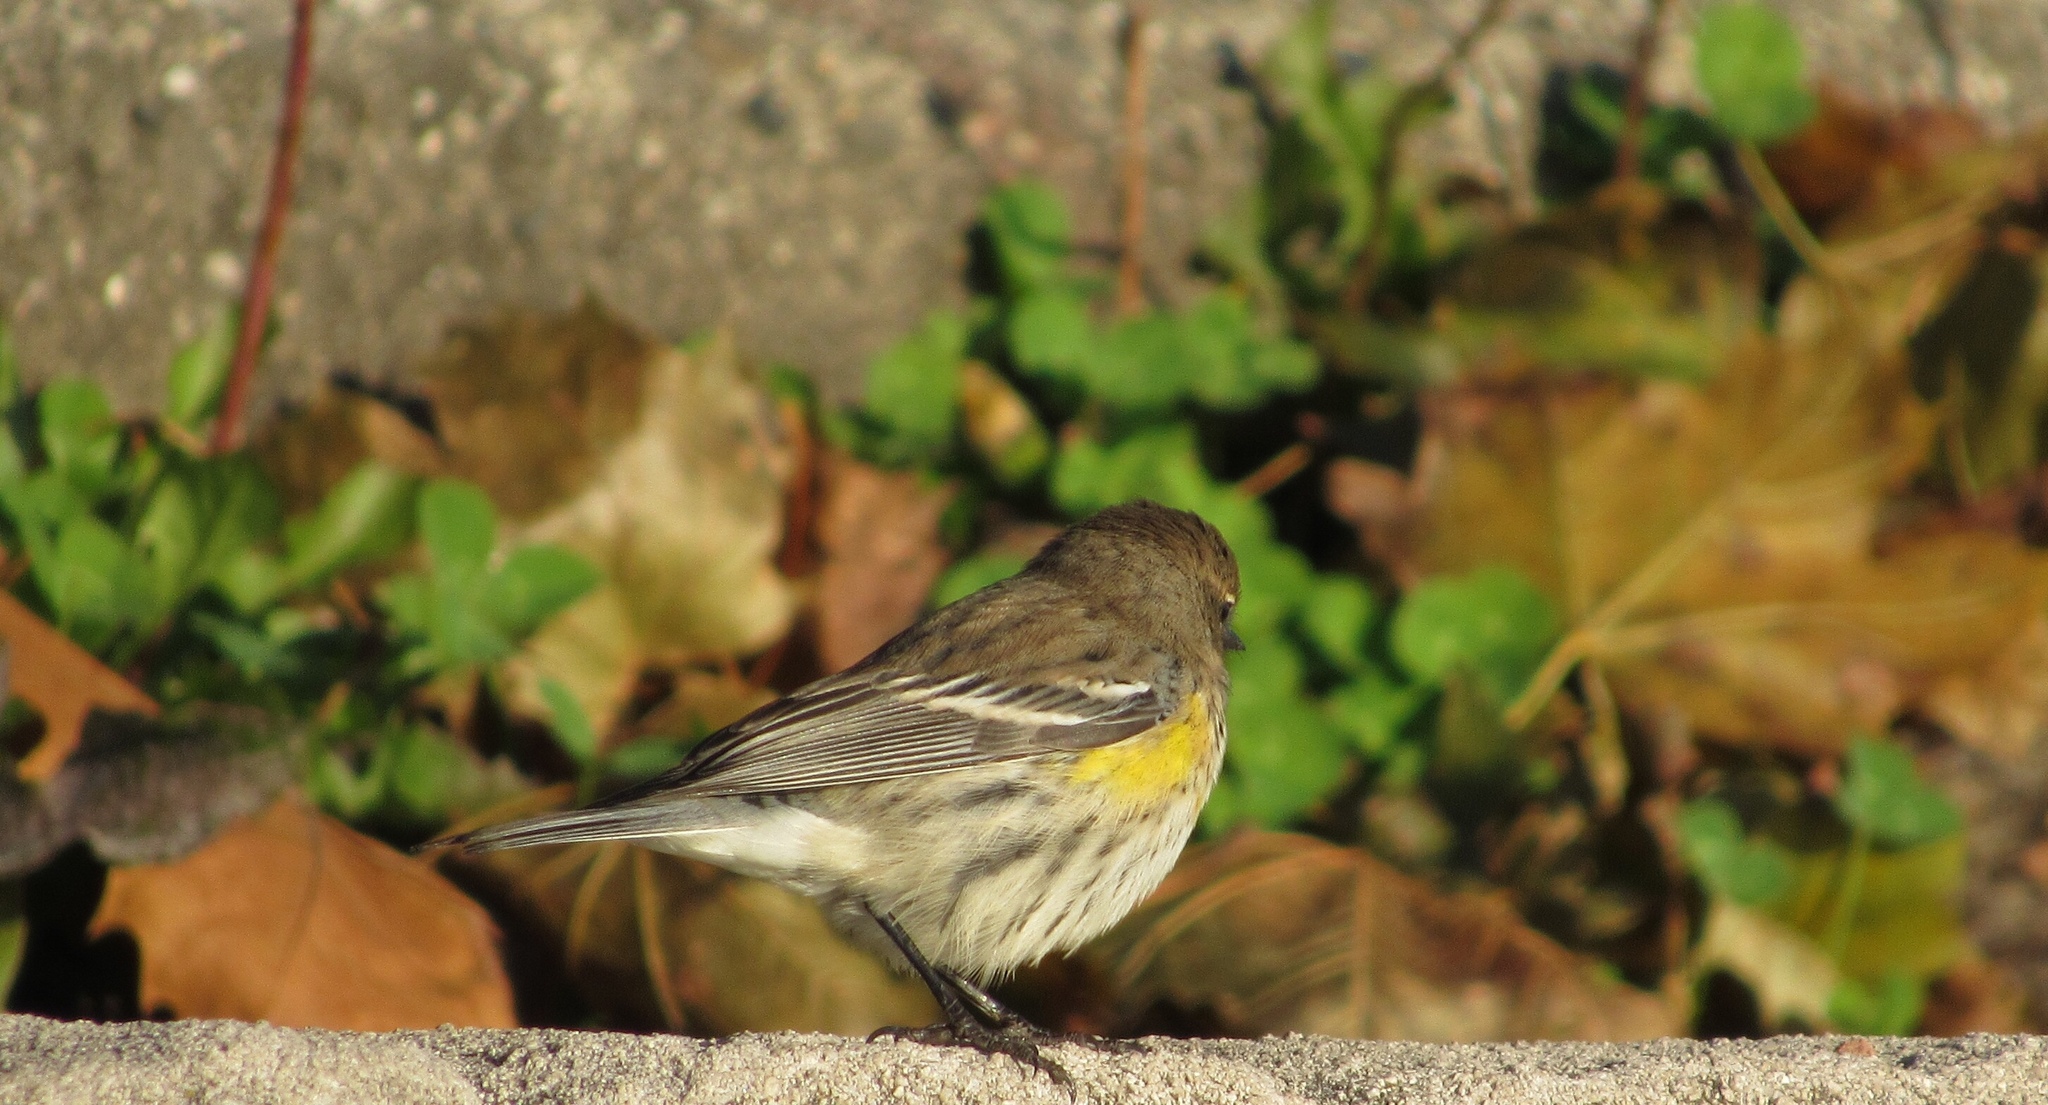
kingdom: Animalia
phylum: Chordata
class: Aves
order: Passeriformes
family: Parulidae
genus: Setophaga
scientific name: Setophaga coronata
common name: Myrtle warbler
